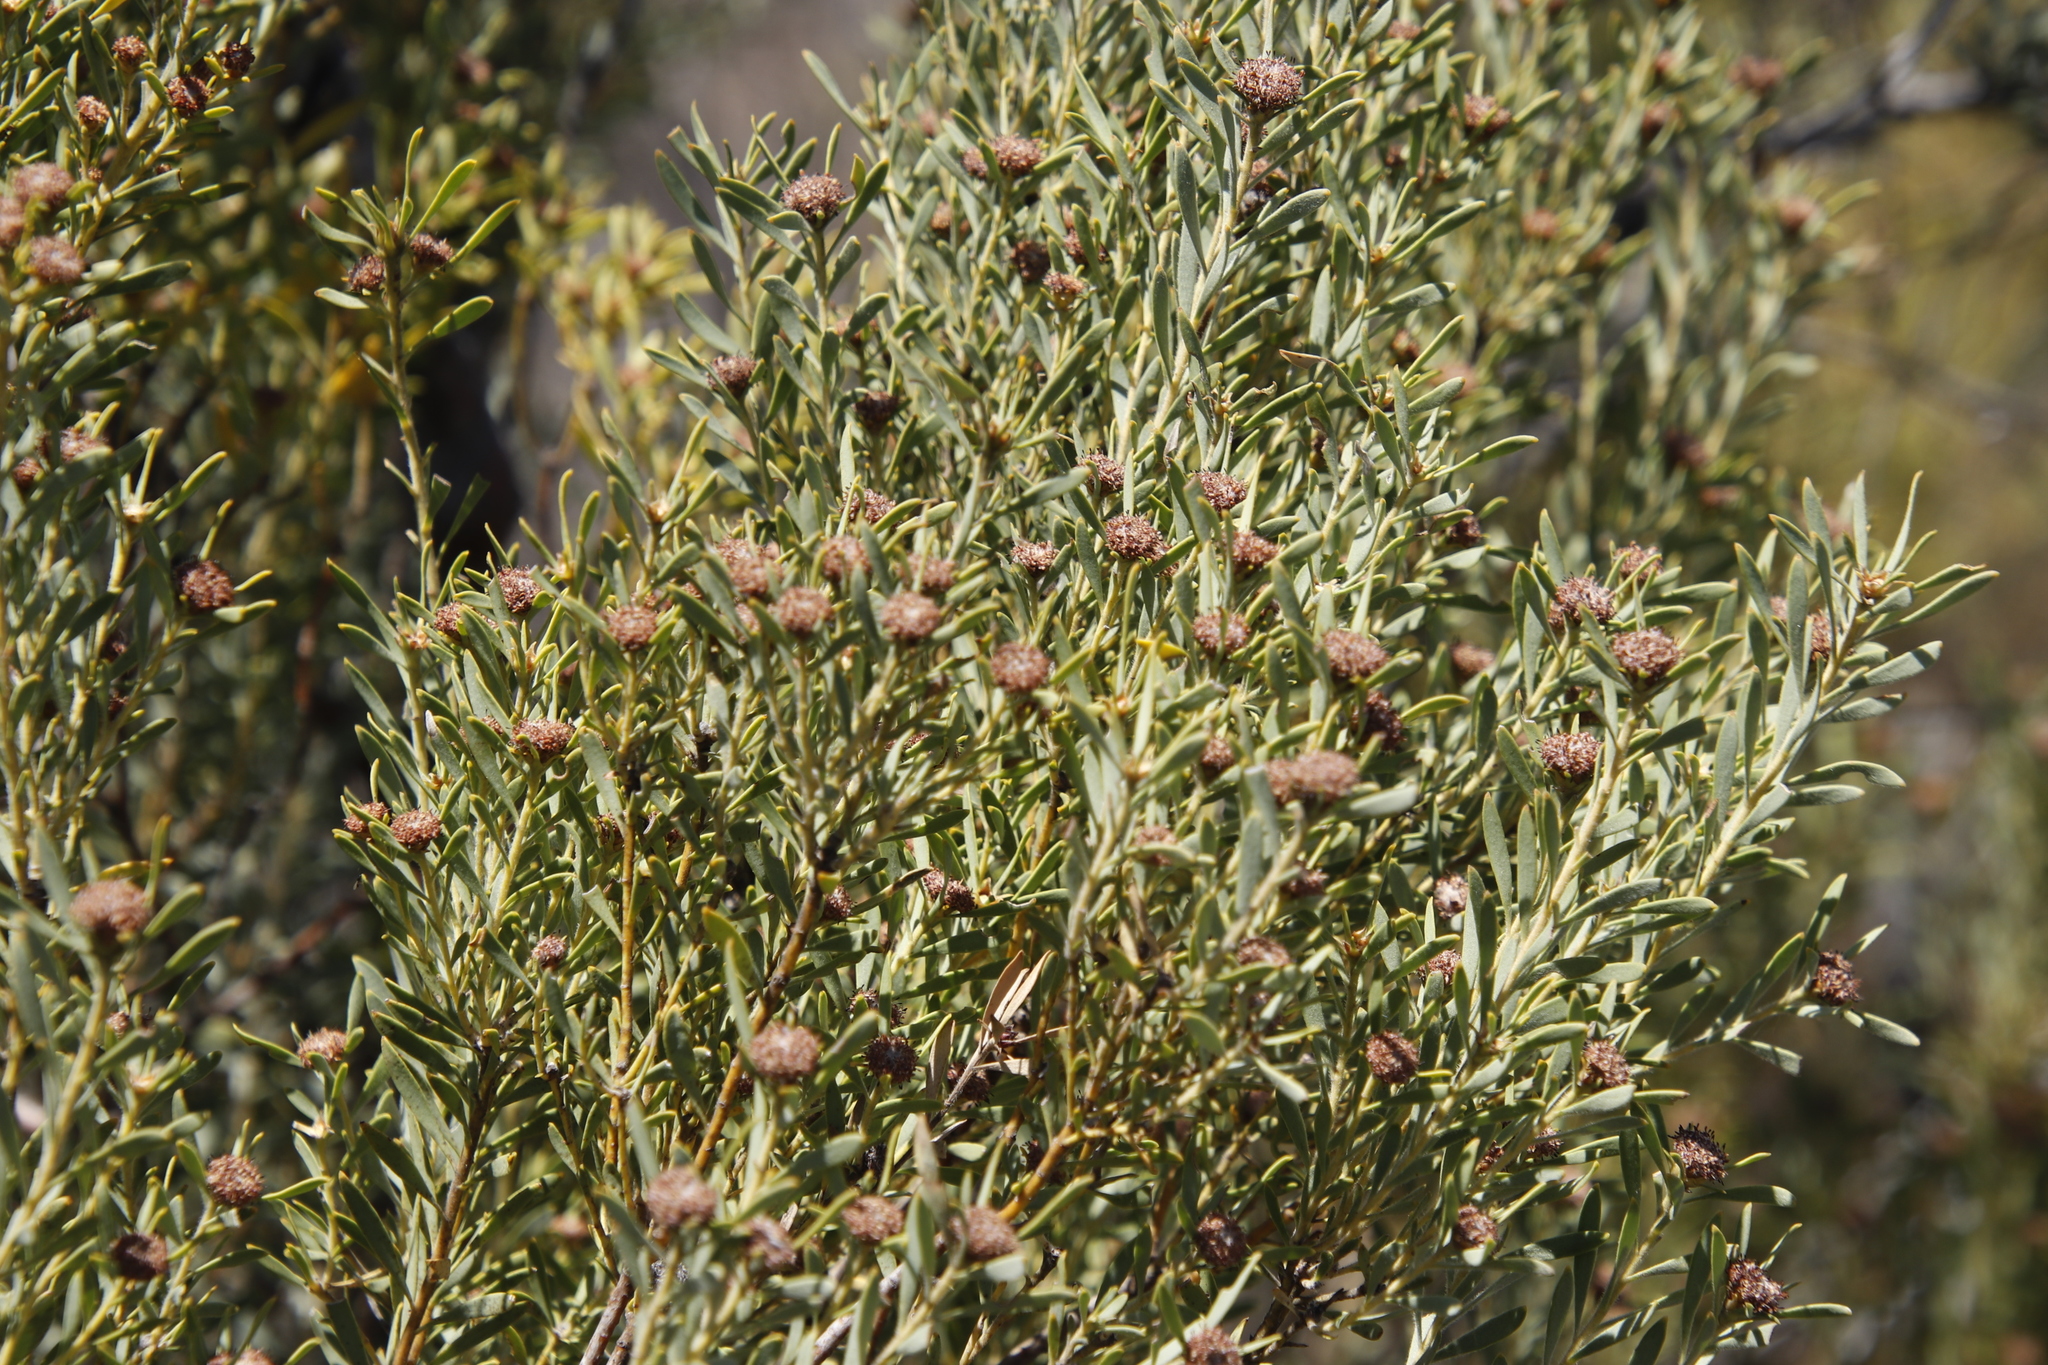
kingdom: Plantae
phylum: Tracheophyta
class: Magnoliopsida
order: Proteales
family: Proteaceae
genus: Leucadendron
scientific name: Leucadendron pubescens
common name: Grey conebush
